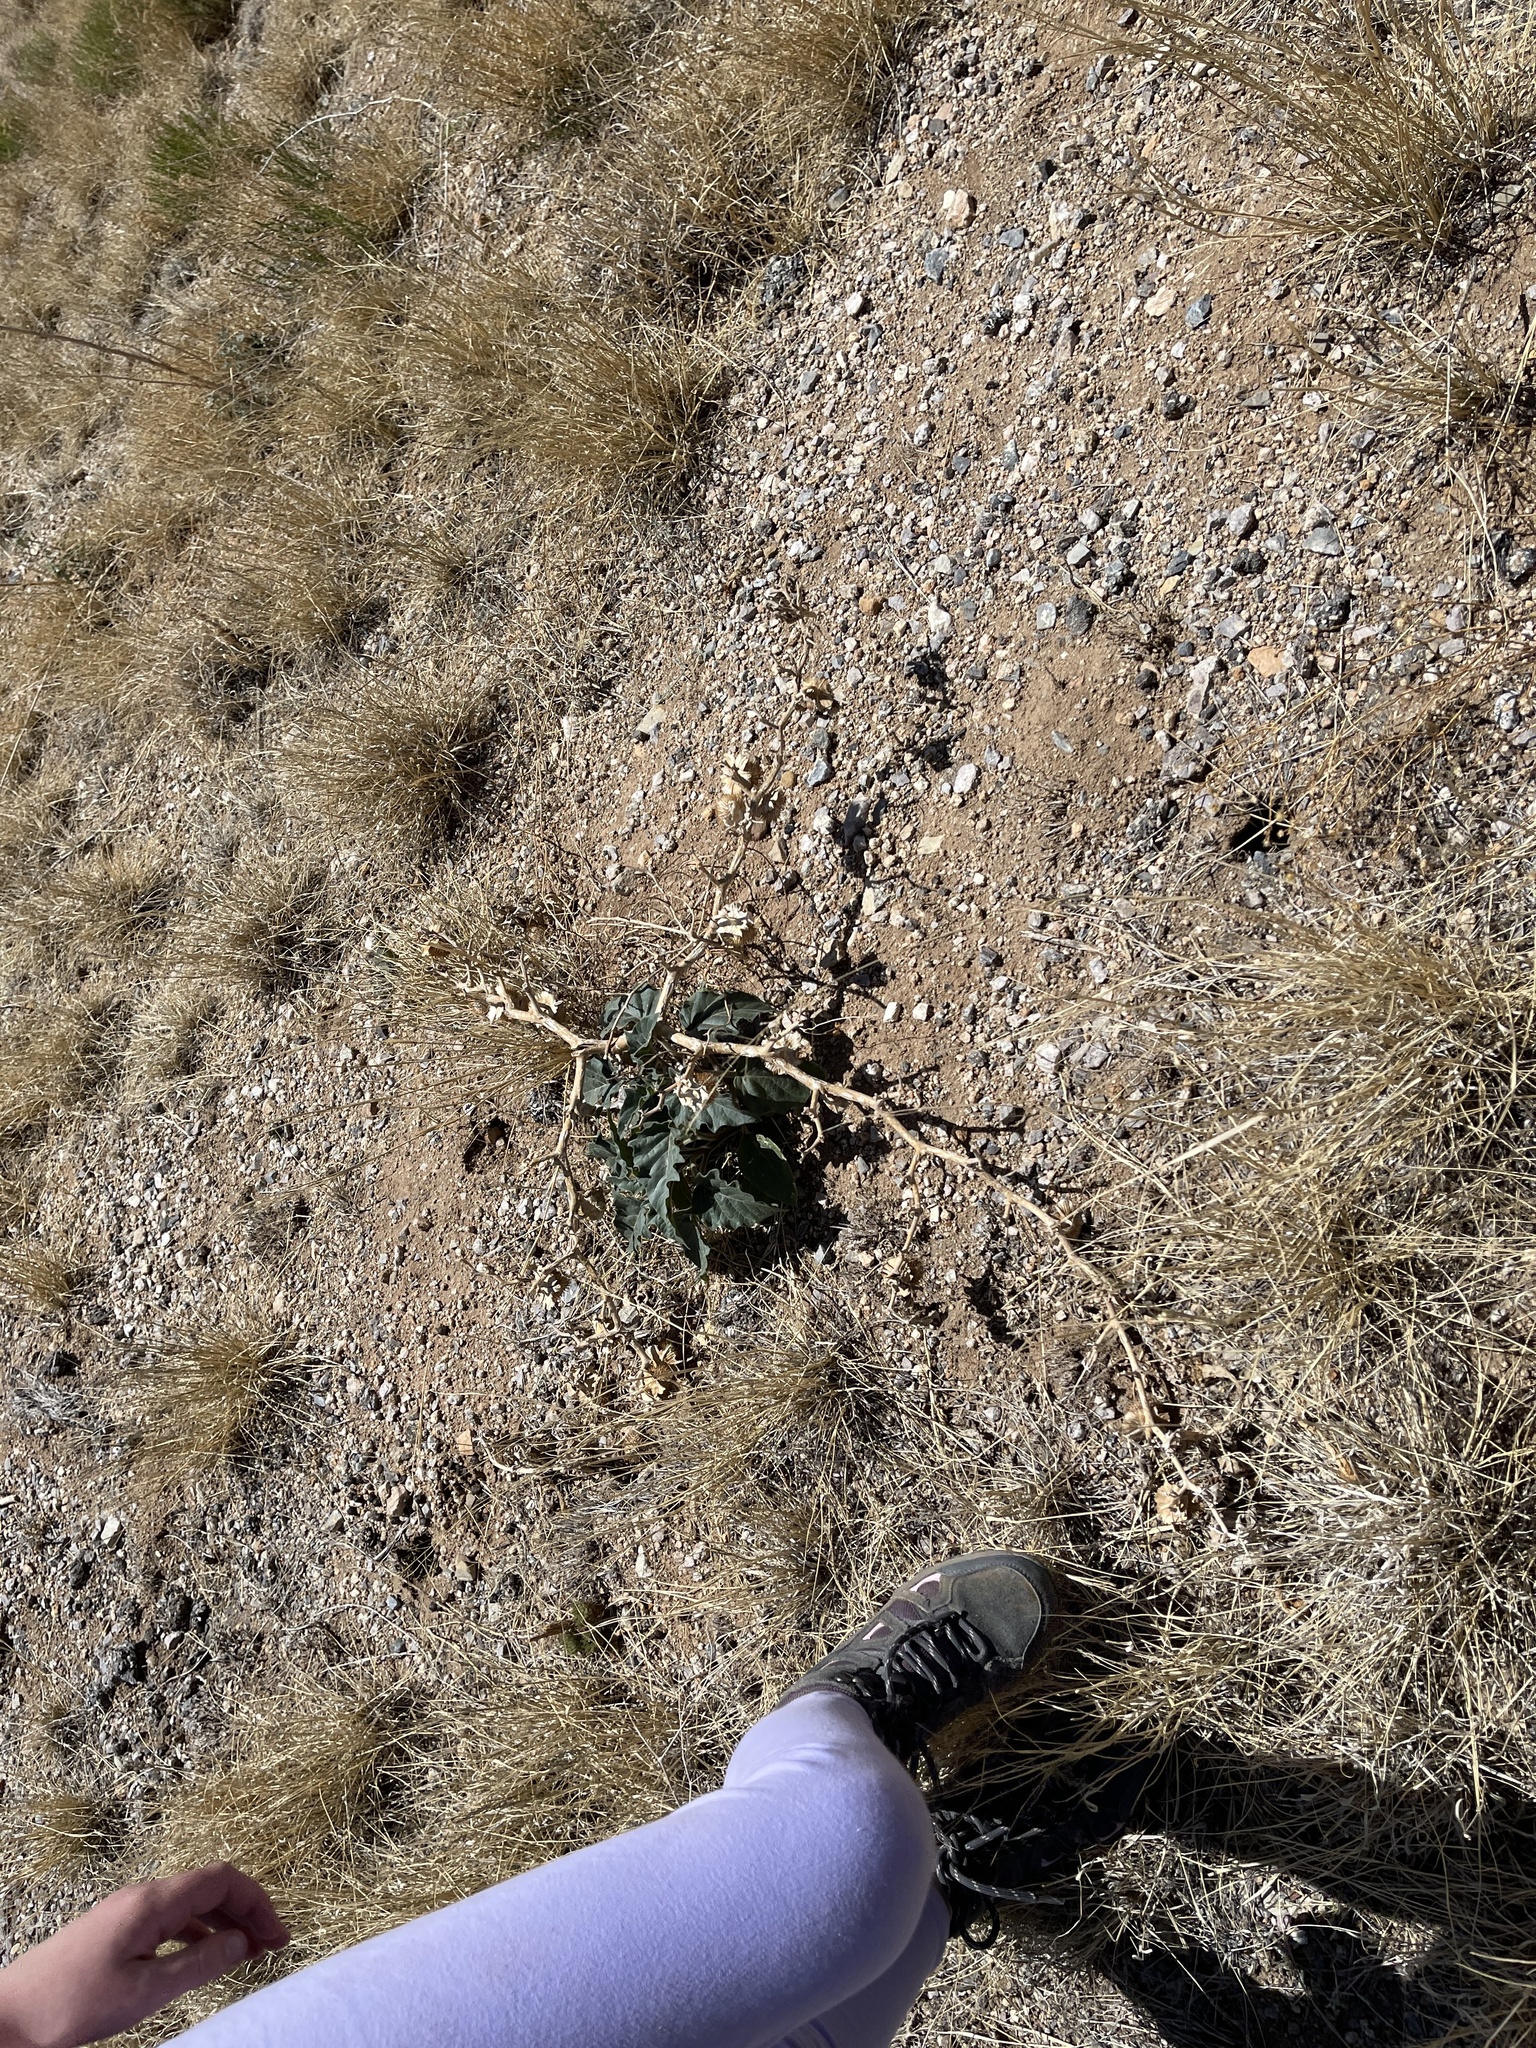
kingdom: Plantae
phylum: Tracheophyta
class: Magnoliopsida
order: Solanales
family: Solanaceae
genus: Datura
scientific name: Datura wrightii
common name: Sacred thorn-apple
